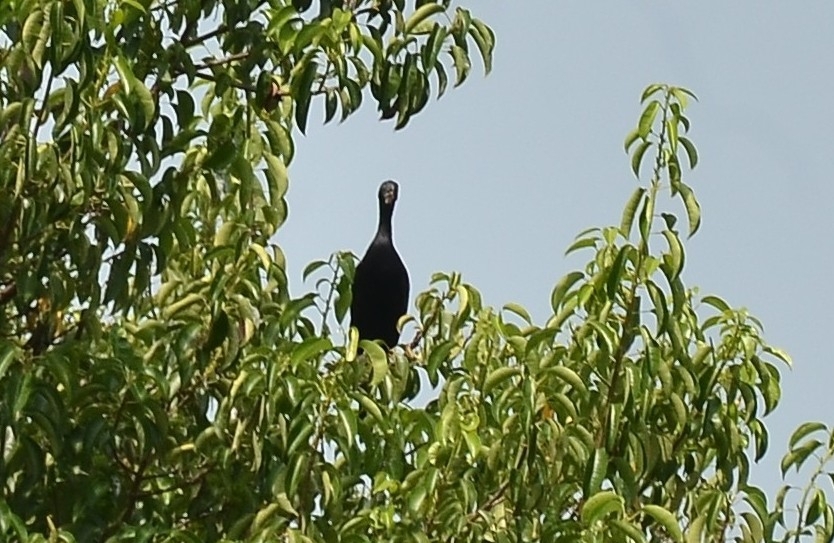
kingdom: Animalia
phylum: Chordata
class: Aves
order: Suliformes
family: Phalacrocoracidae
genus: Microcarbo
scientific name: Microcarbo niger
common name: Little cormorant
